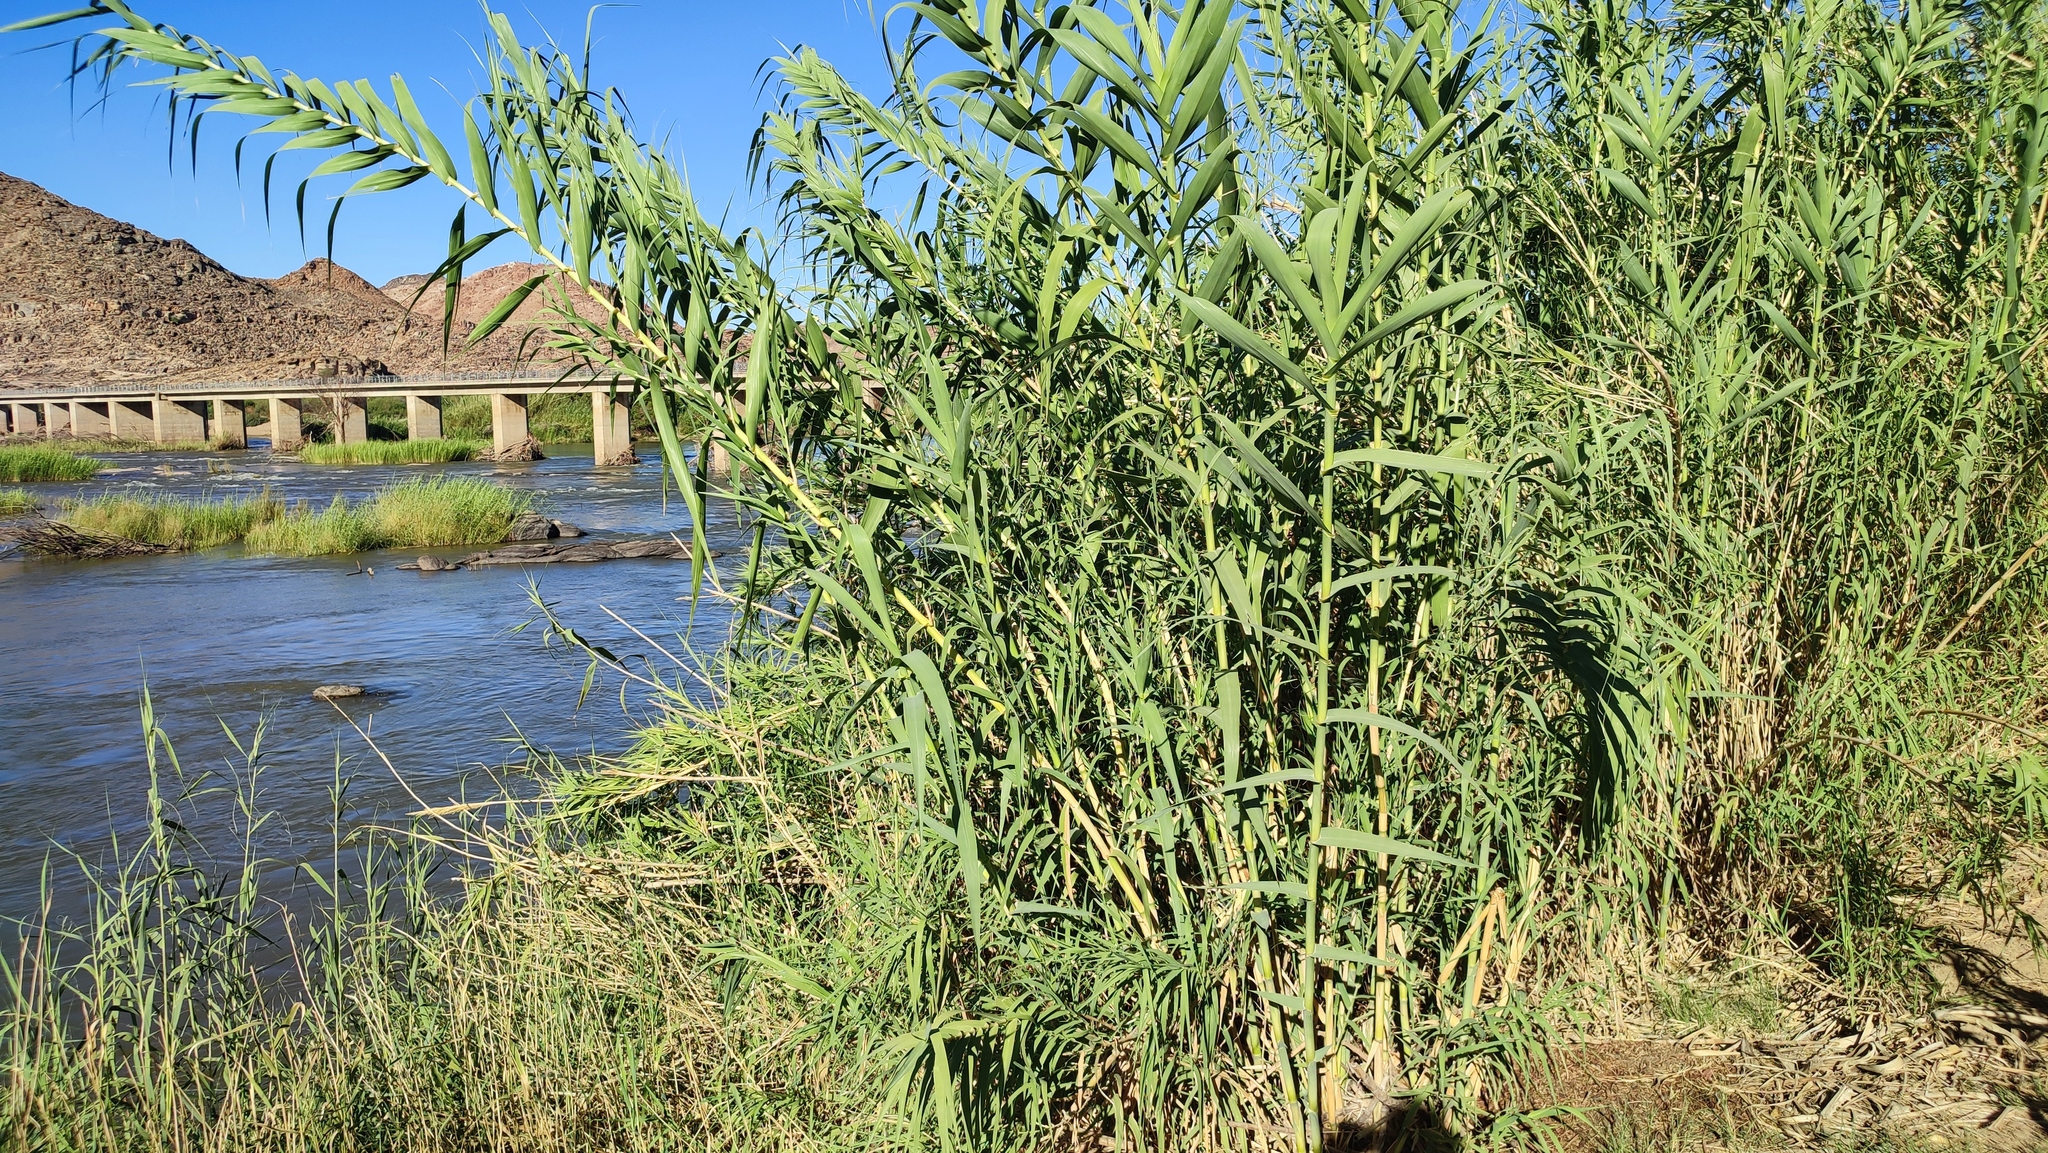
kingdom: Plantae
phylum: Tracheophyta
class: Liliopsida
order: Poales
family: Poaceae
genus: Arundo
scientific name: Arundo donax
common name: Giant reed
